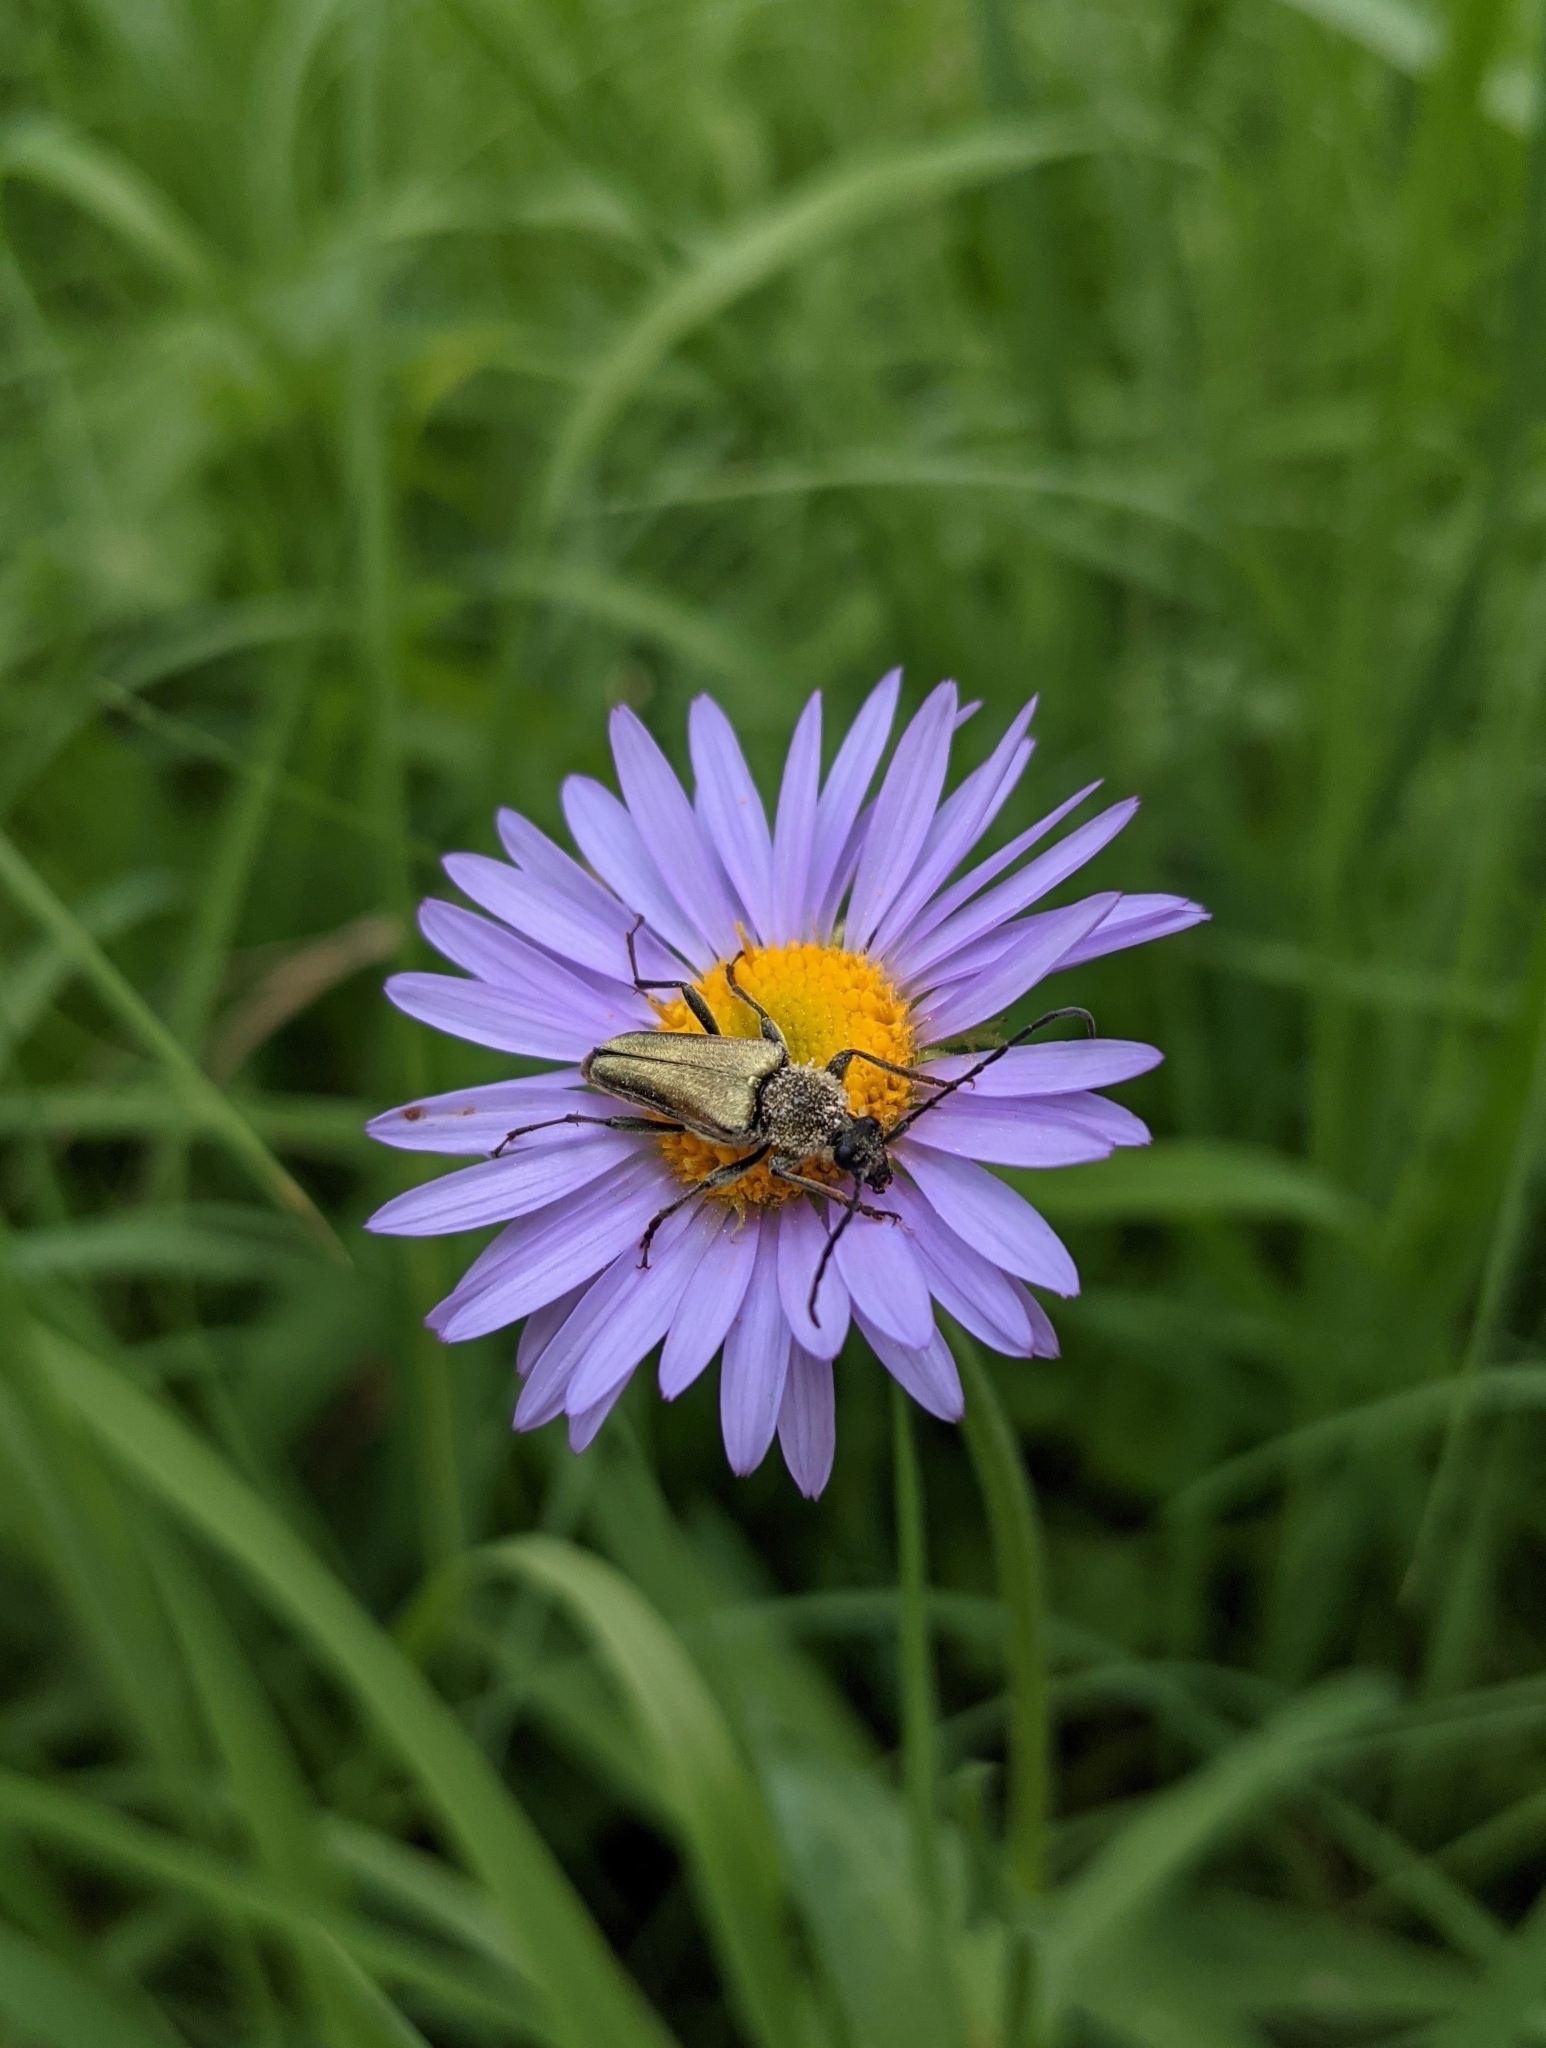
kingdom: Animalia
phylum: Arthropoda
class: Insecta
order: Coleoptera
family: Cerambycidae
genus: Cosmosalia
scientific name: Cosmosalia chrysocoma
